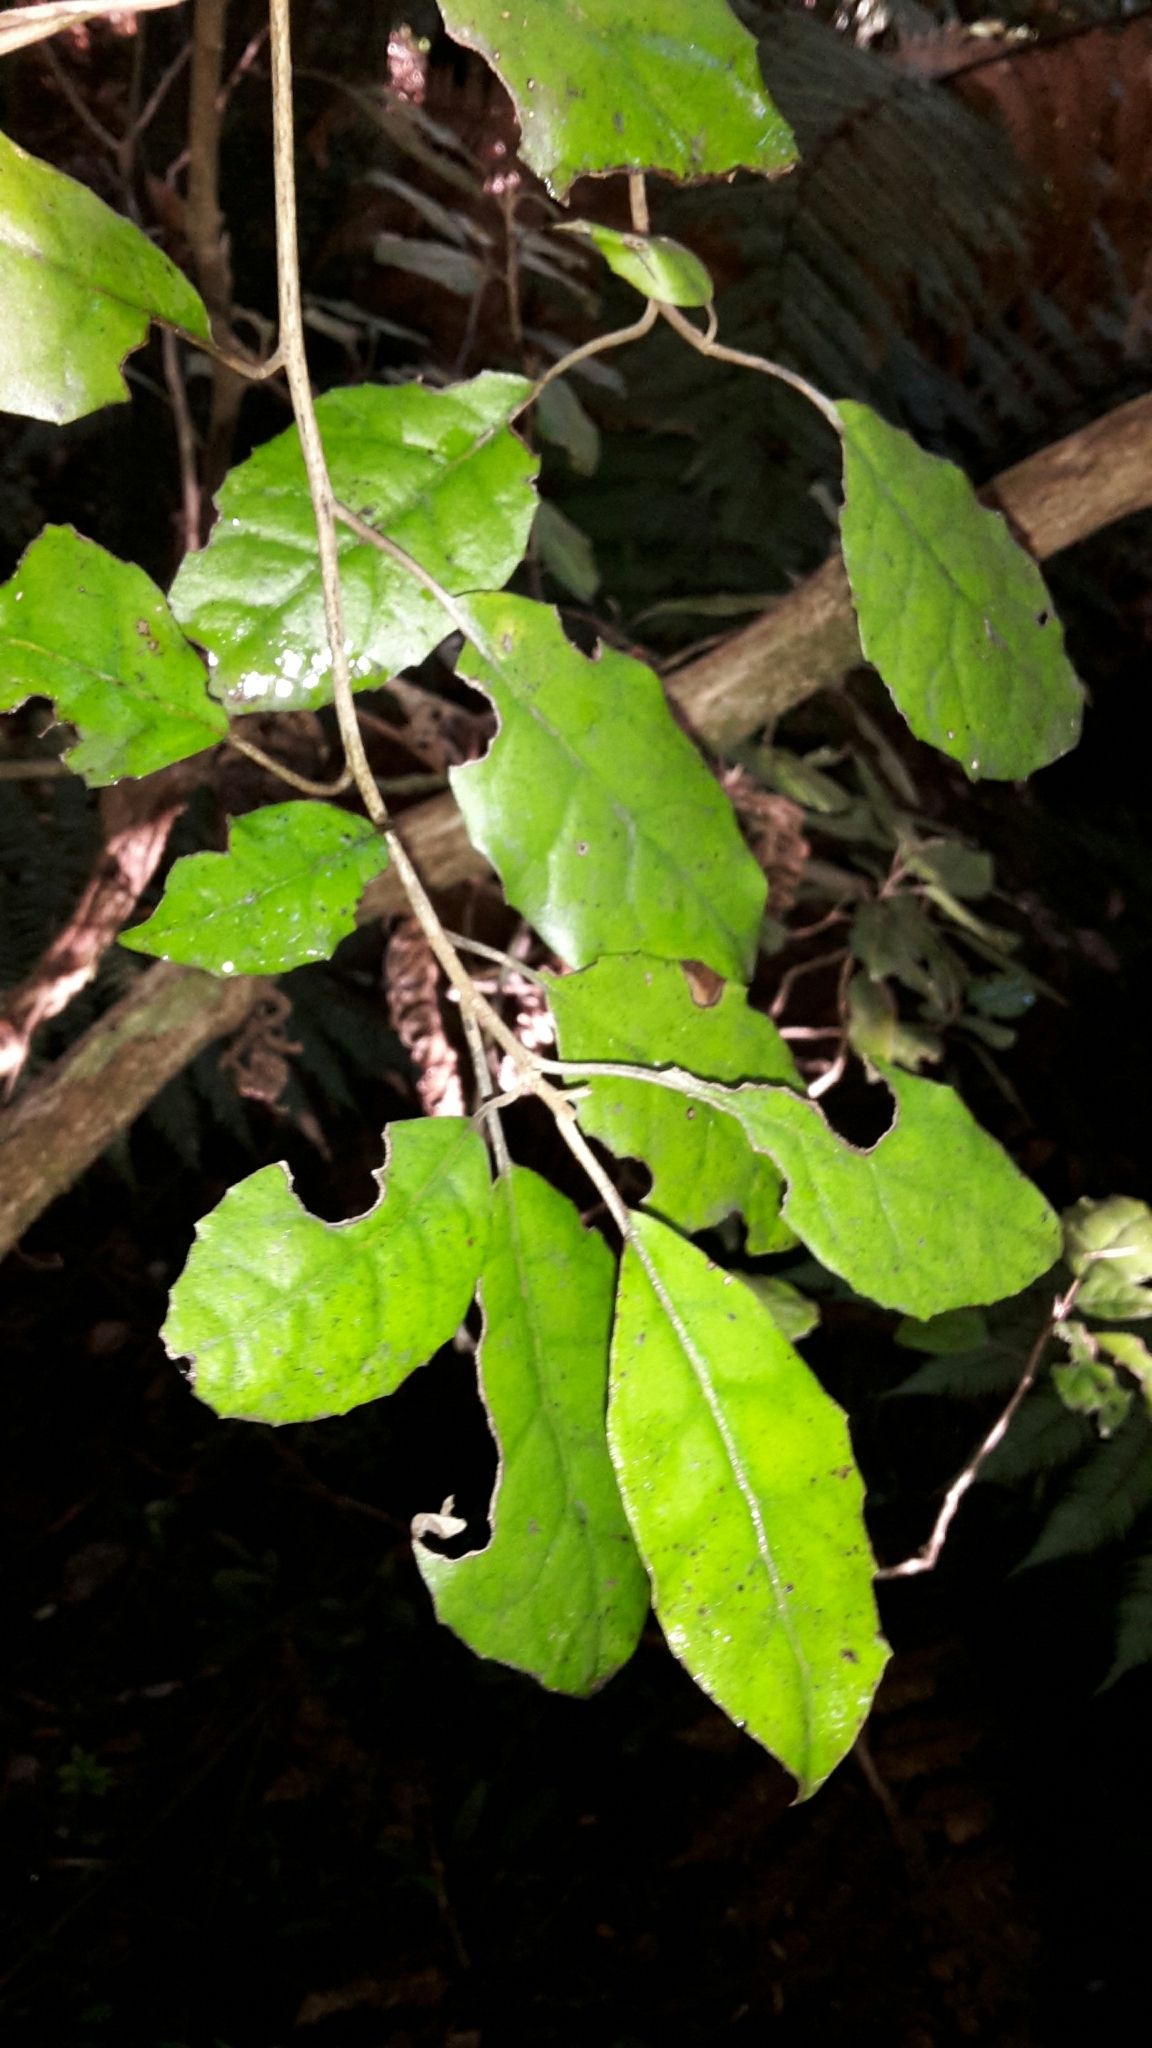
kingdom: Plantae
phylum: Tracheophyta
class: Magnoliopsida
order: Asterales
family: Asteraceae
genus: Olearia
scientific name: Olearia rani
